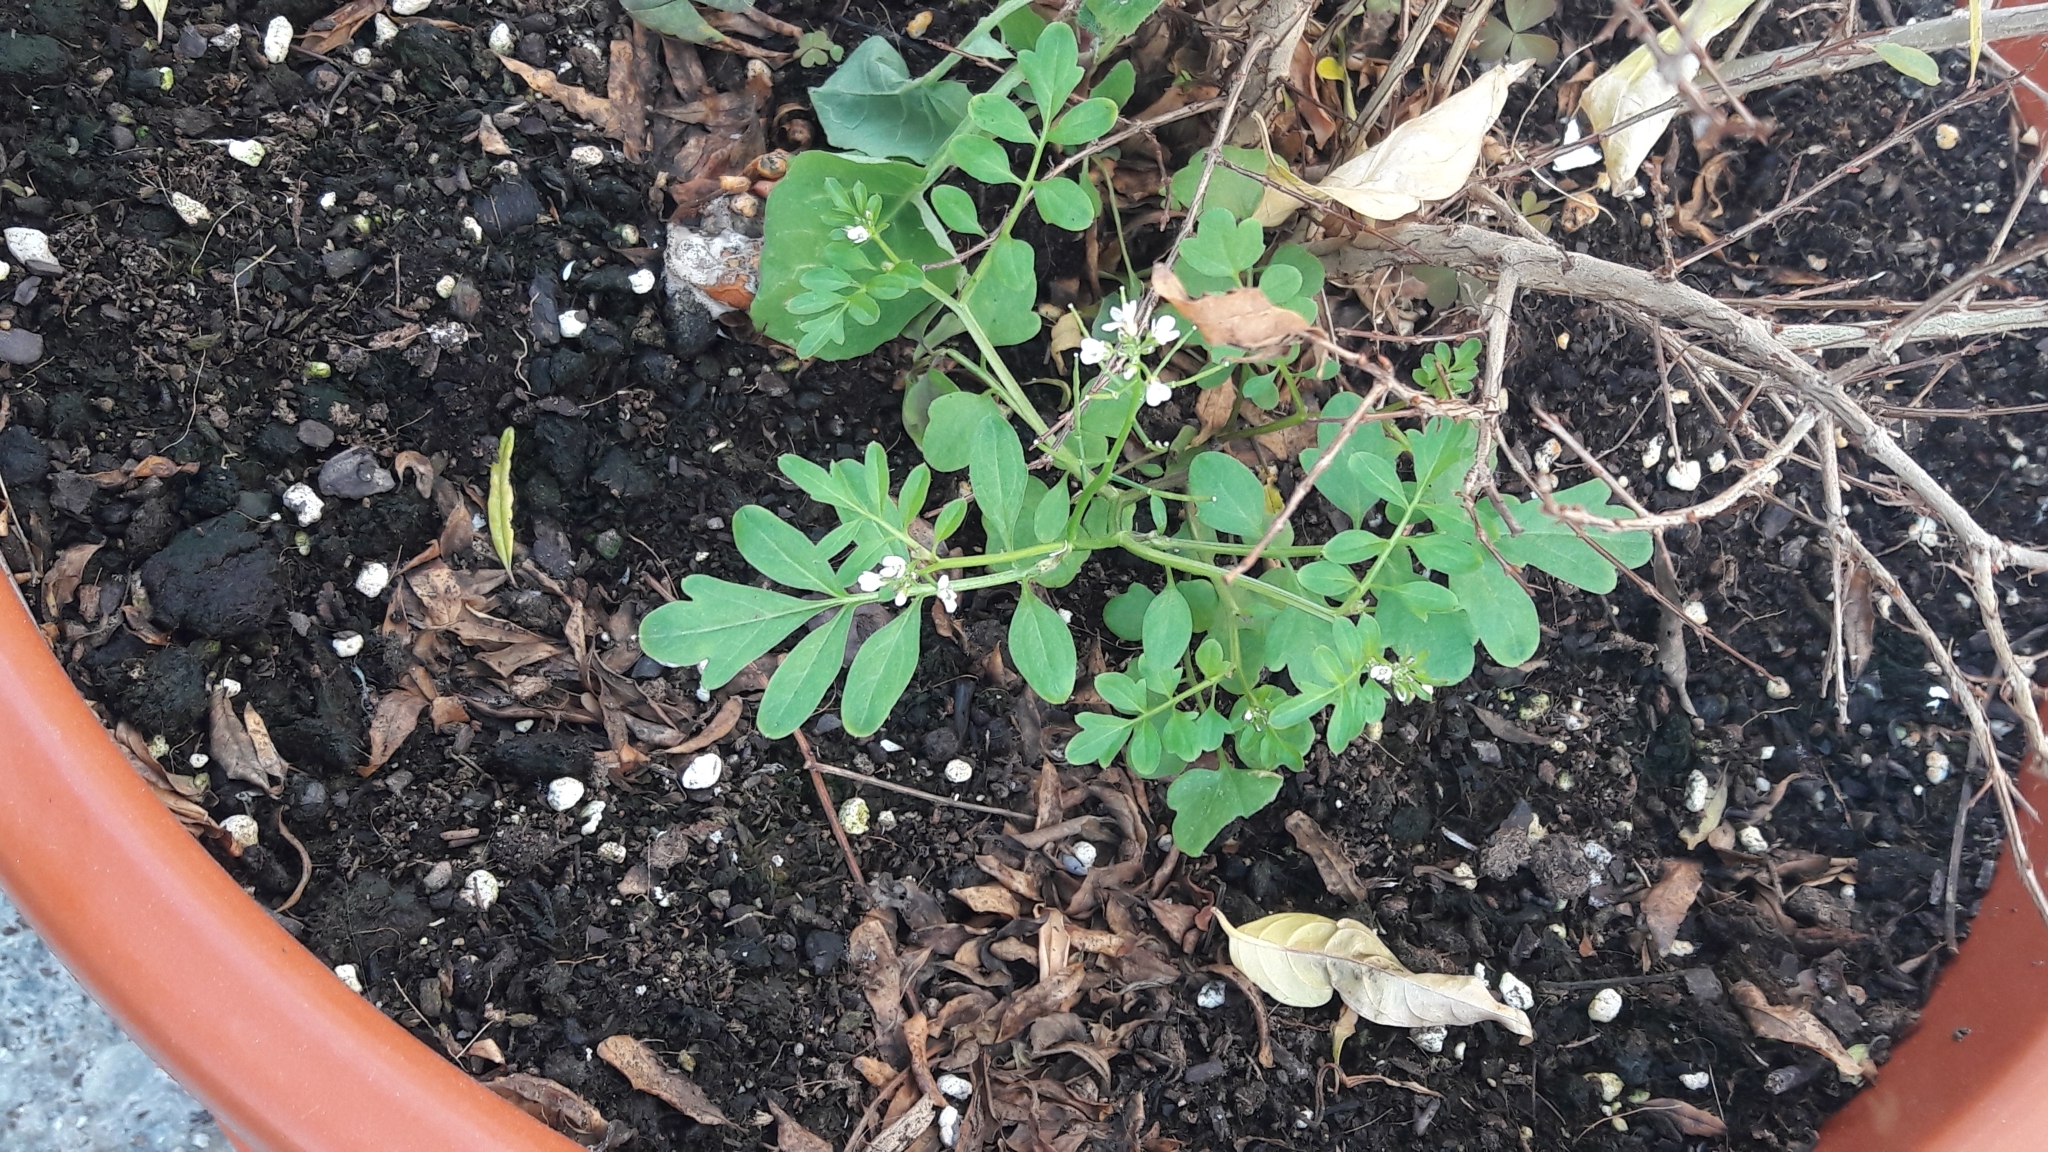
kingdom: Plantae
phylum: Tracheophyta
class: Magnoliopsida
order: Brassicales
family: Brassicaceae
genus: Cardamine
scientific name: Cardamine occulta
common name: Asian wavy bittercress
